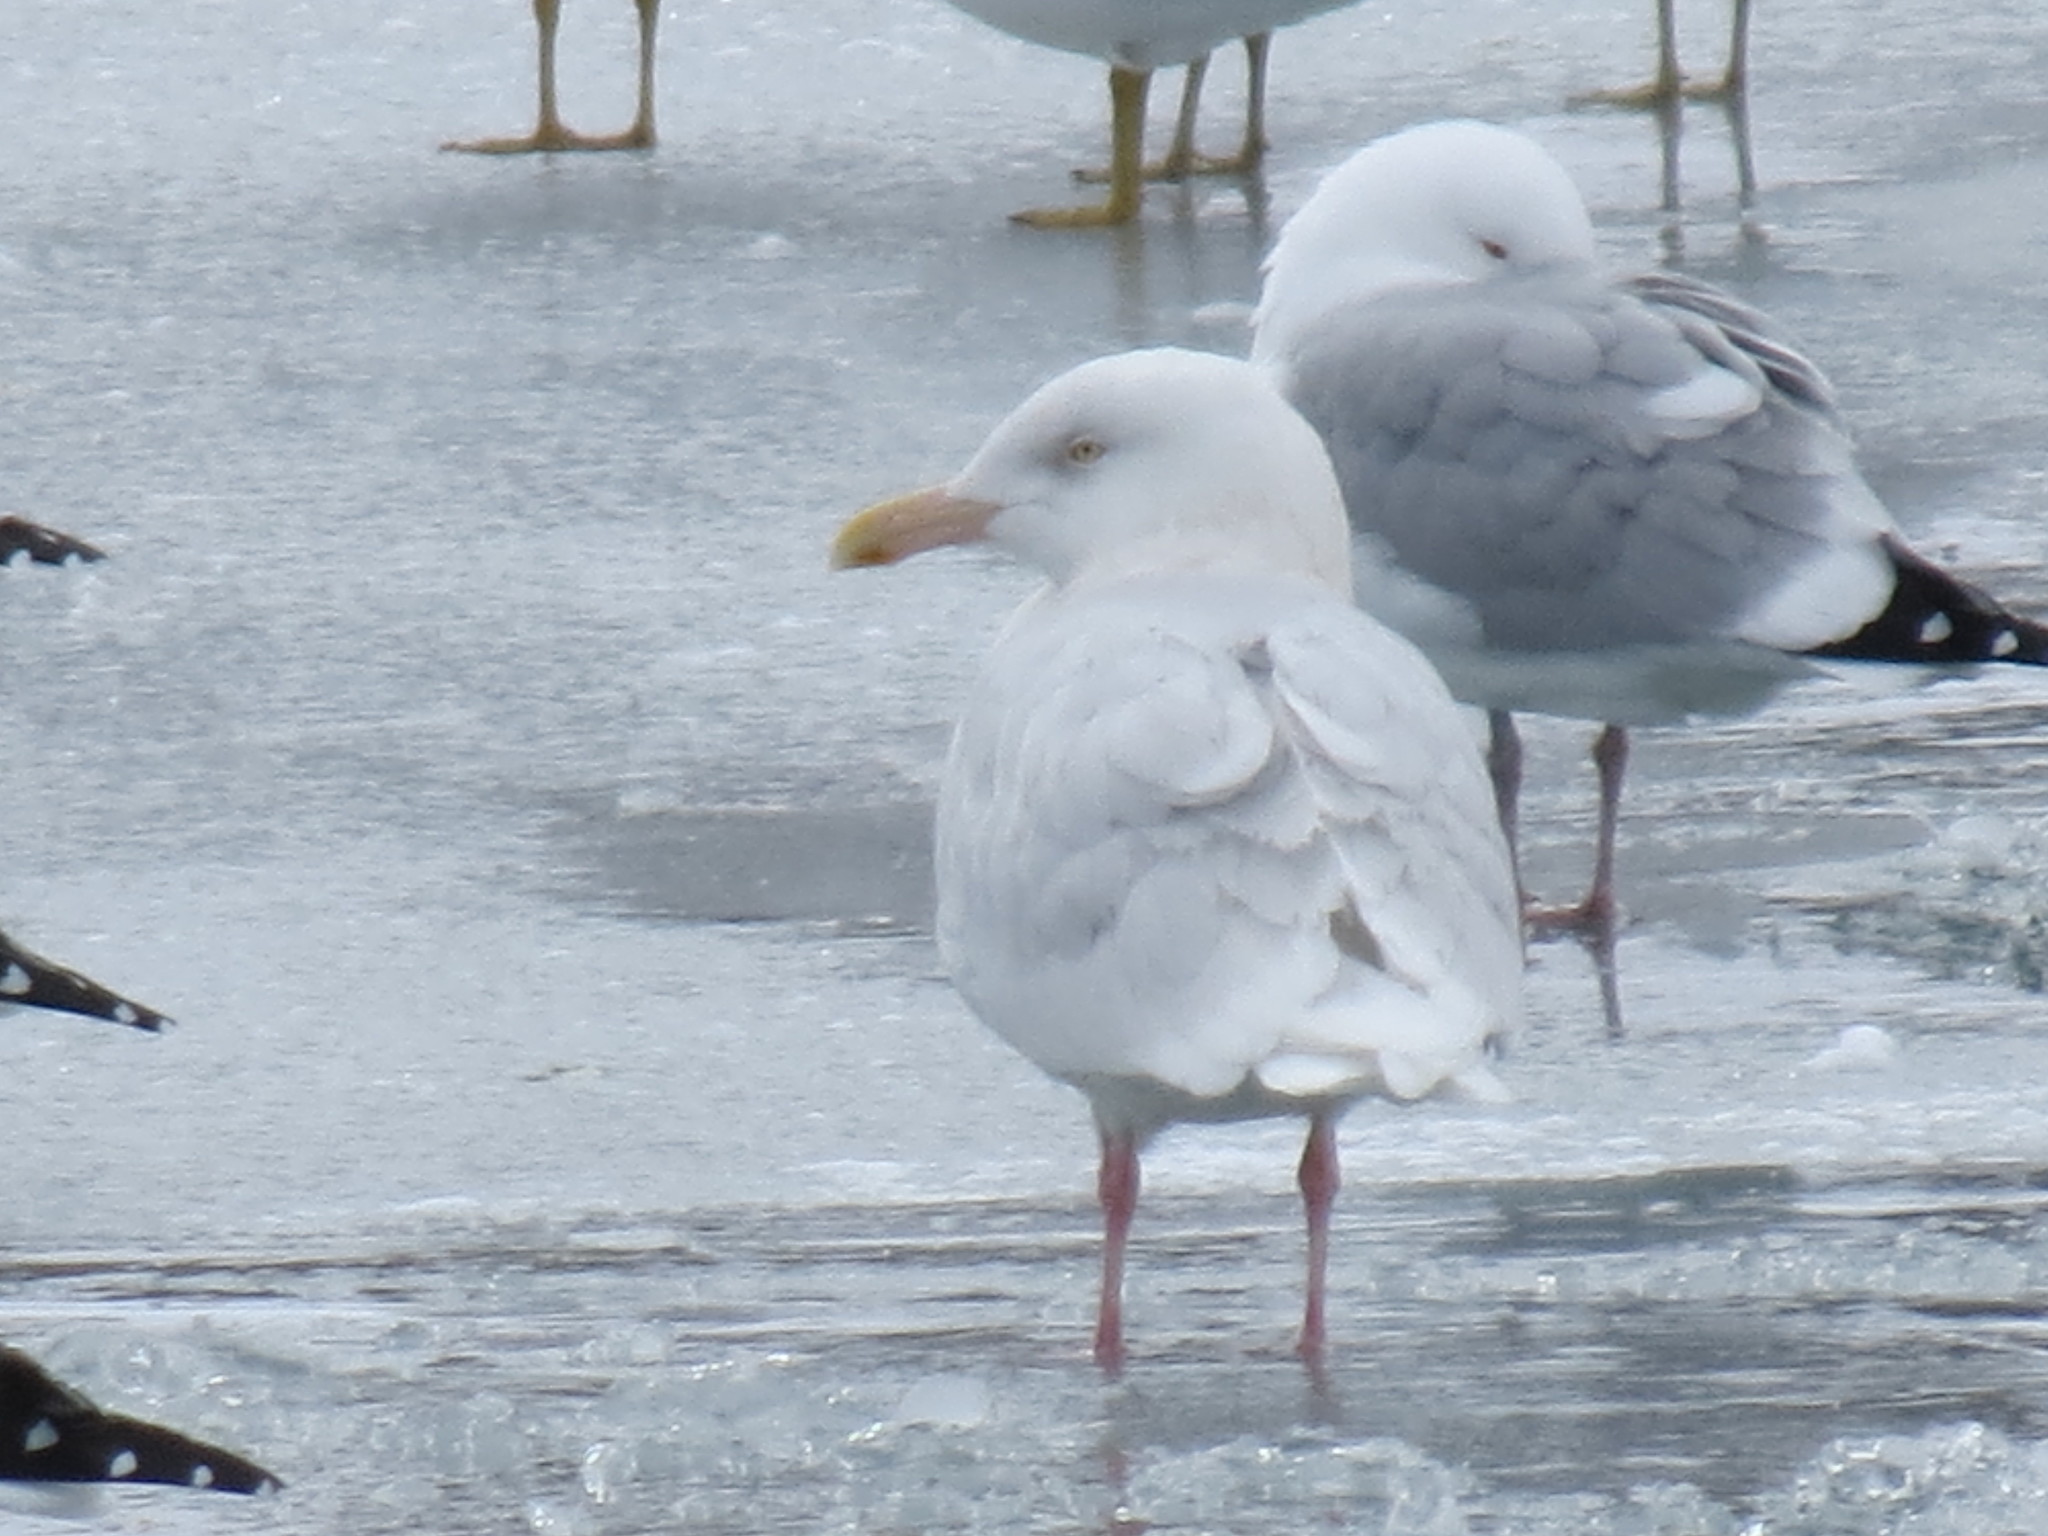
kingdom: Animalia
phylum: Chordata
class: Aves
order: Charadriiformes
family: Laridae
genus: Larus
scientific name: Larus hyperboreus
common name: Glaucous gull
